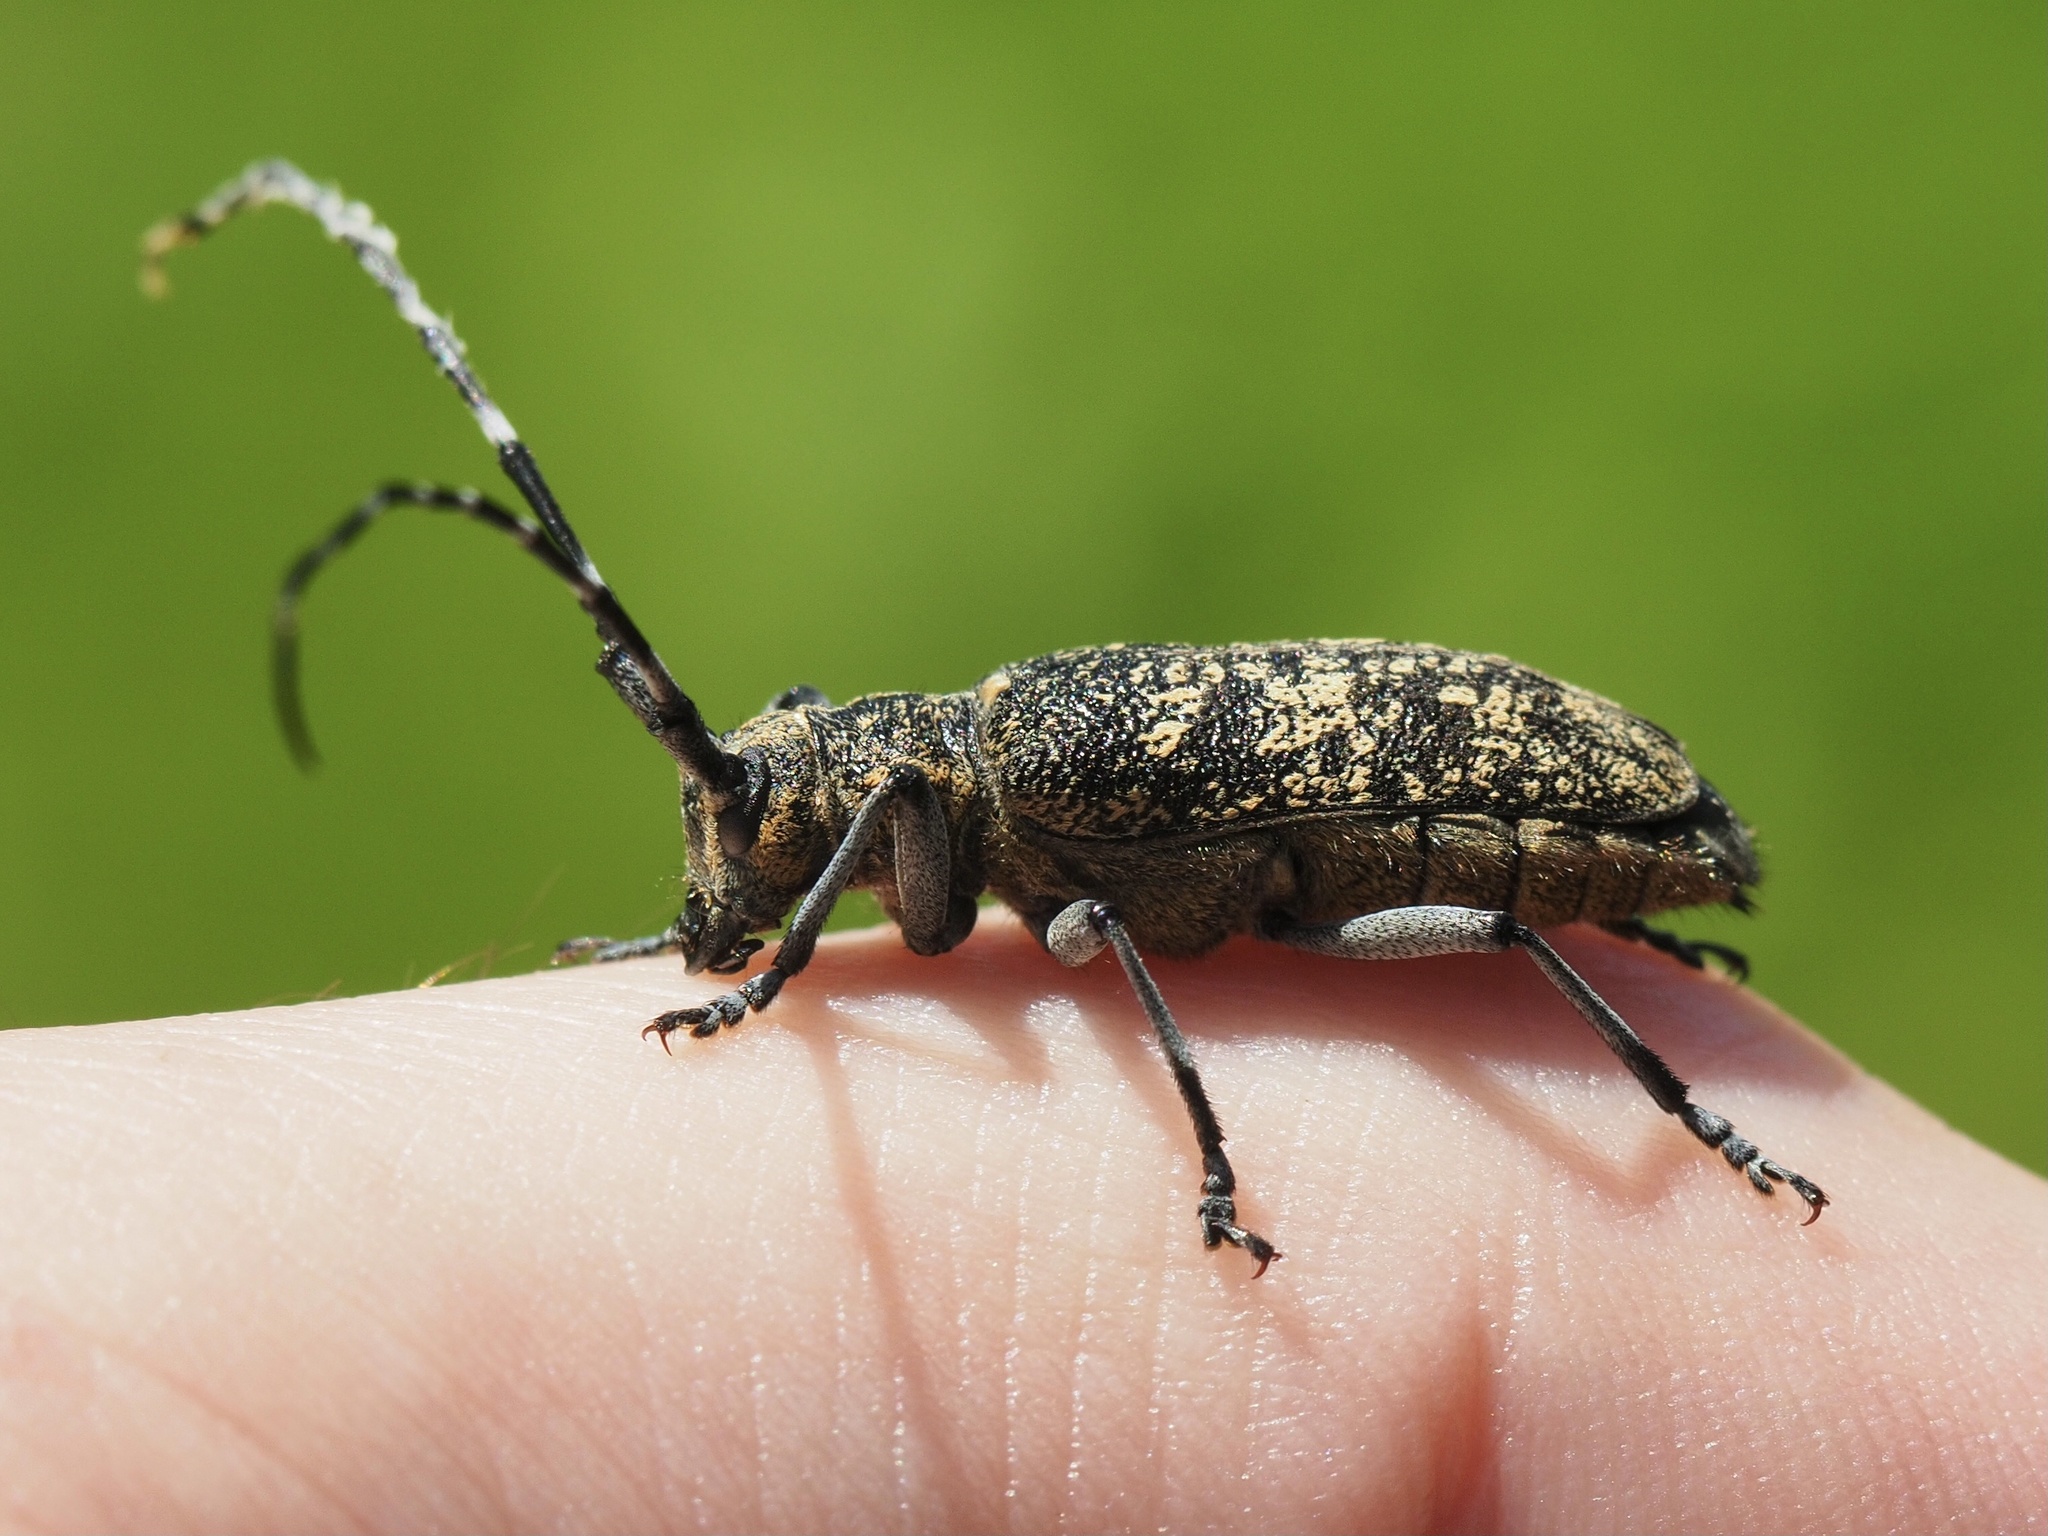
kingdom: Animalia
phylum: Arthropoda
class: Insecta
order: Coleoptera
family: Cerambycidae
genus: Monochamus
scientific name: Monochamus sutor
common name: Pine sawyer
